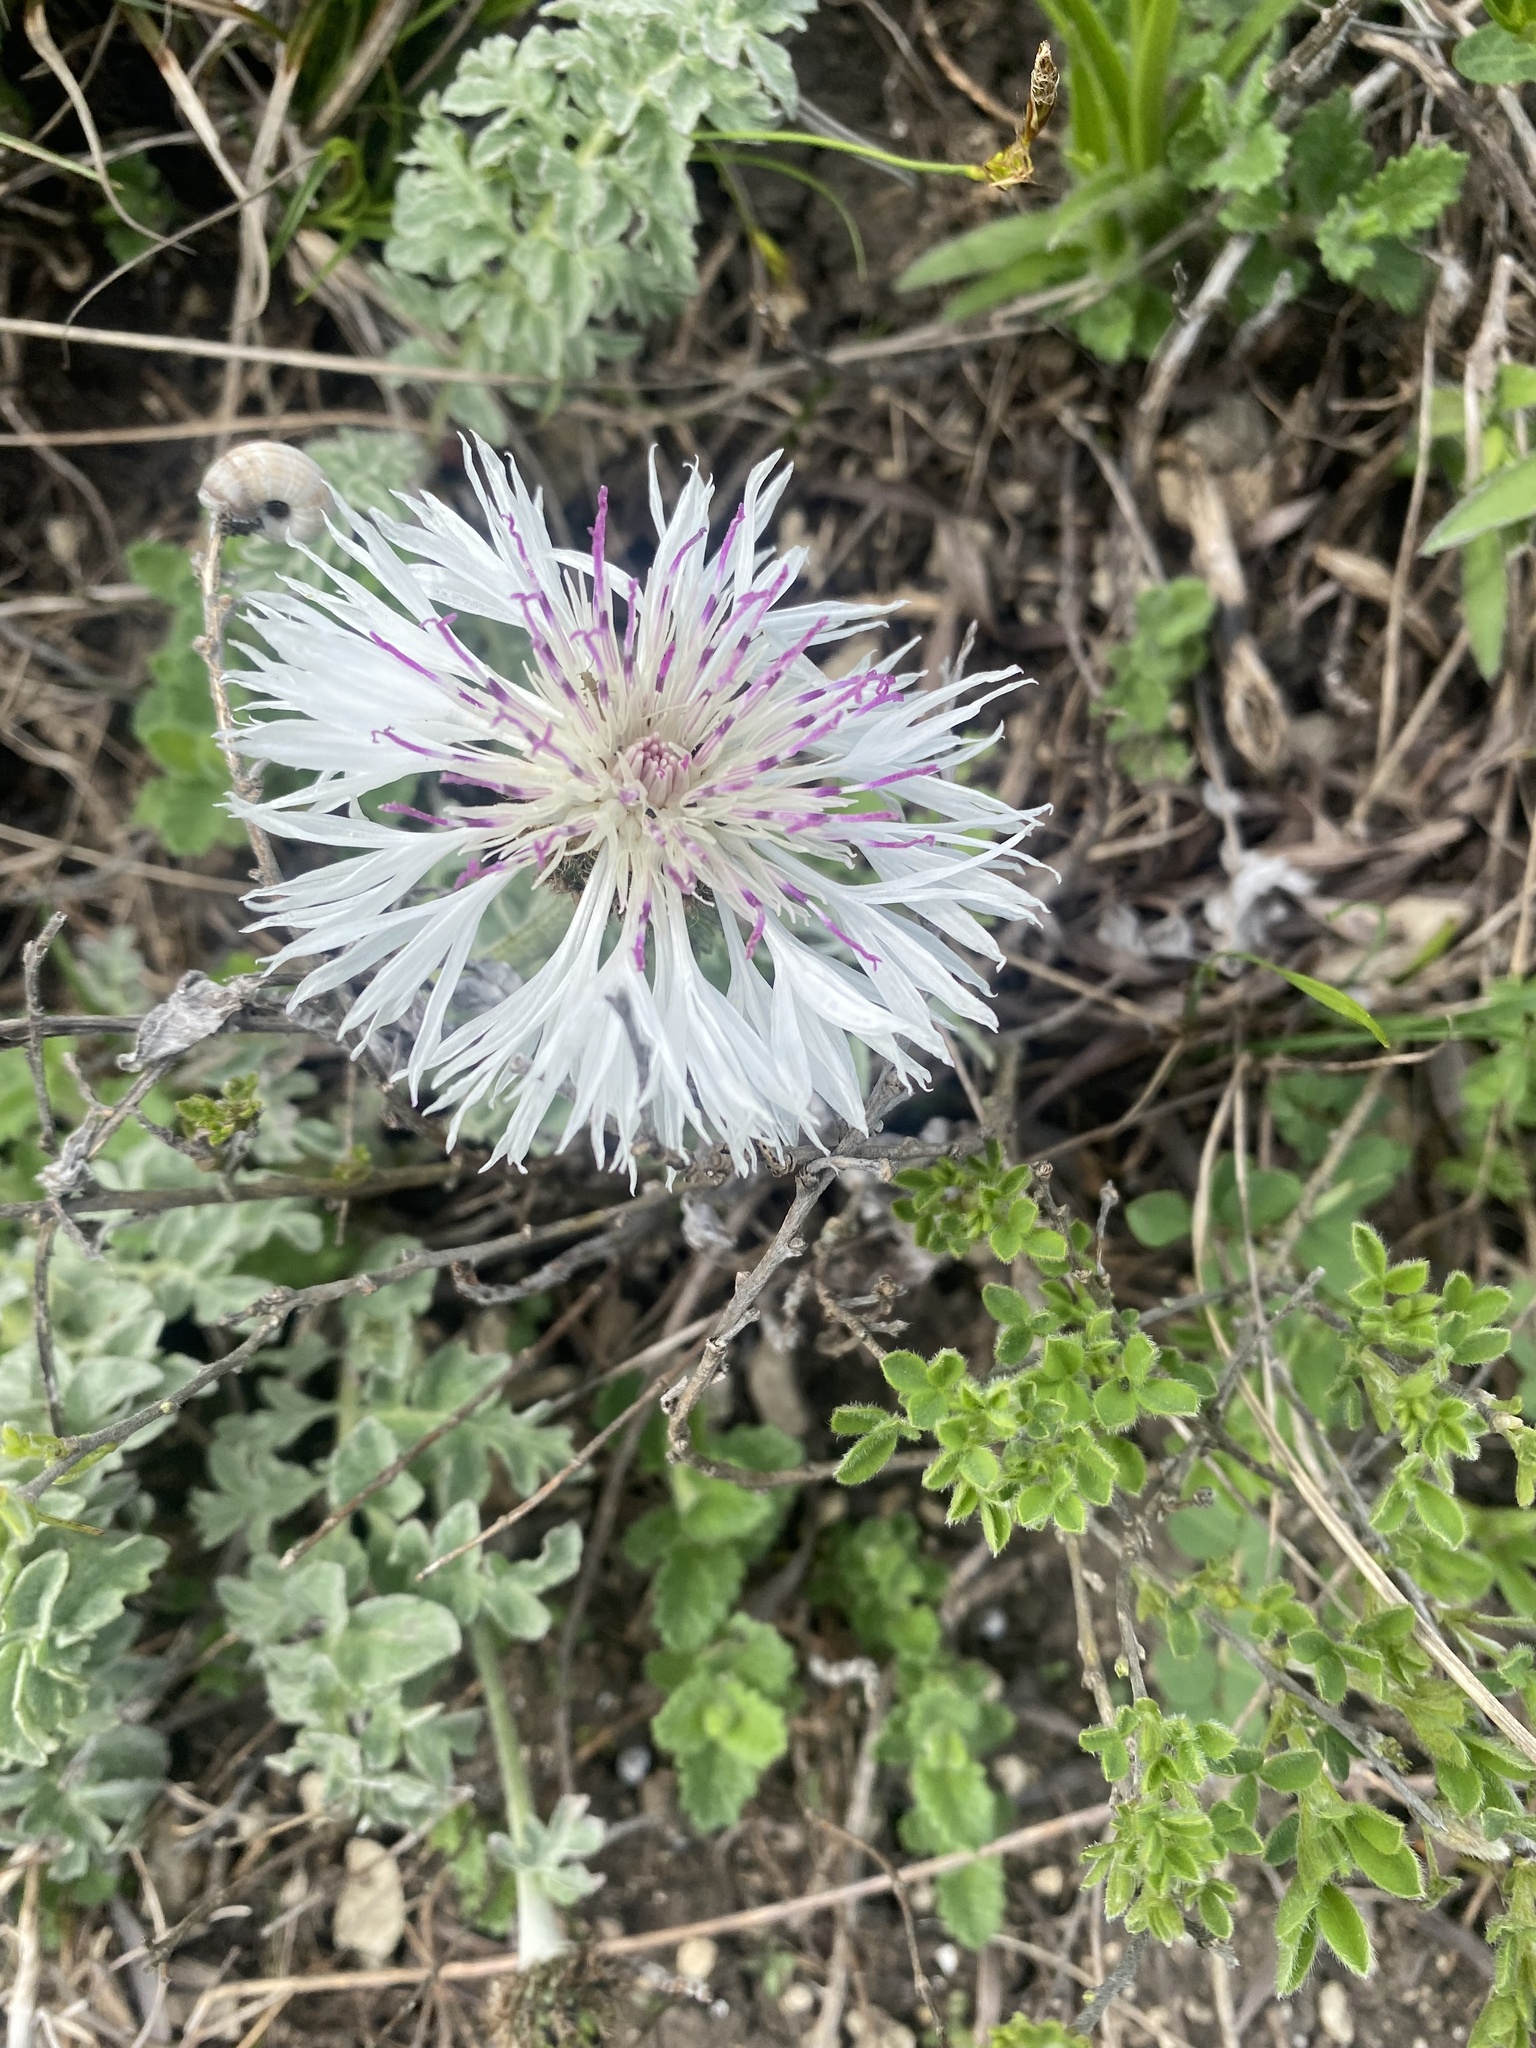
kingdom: Plantae
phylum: Tracheophyta
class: Magnoliopsida
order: Asterales
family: Asteraceae
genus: Psephellus
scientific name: Psephellus declinatus
